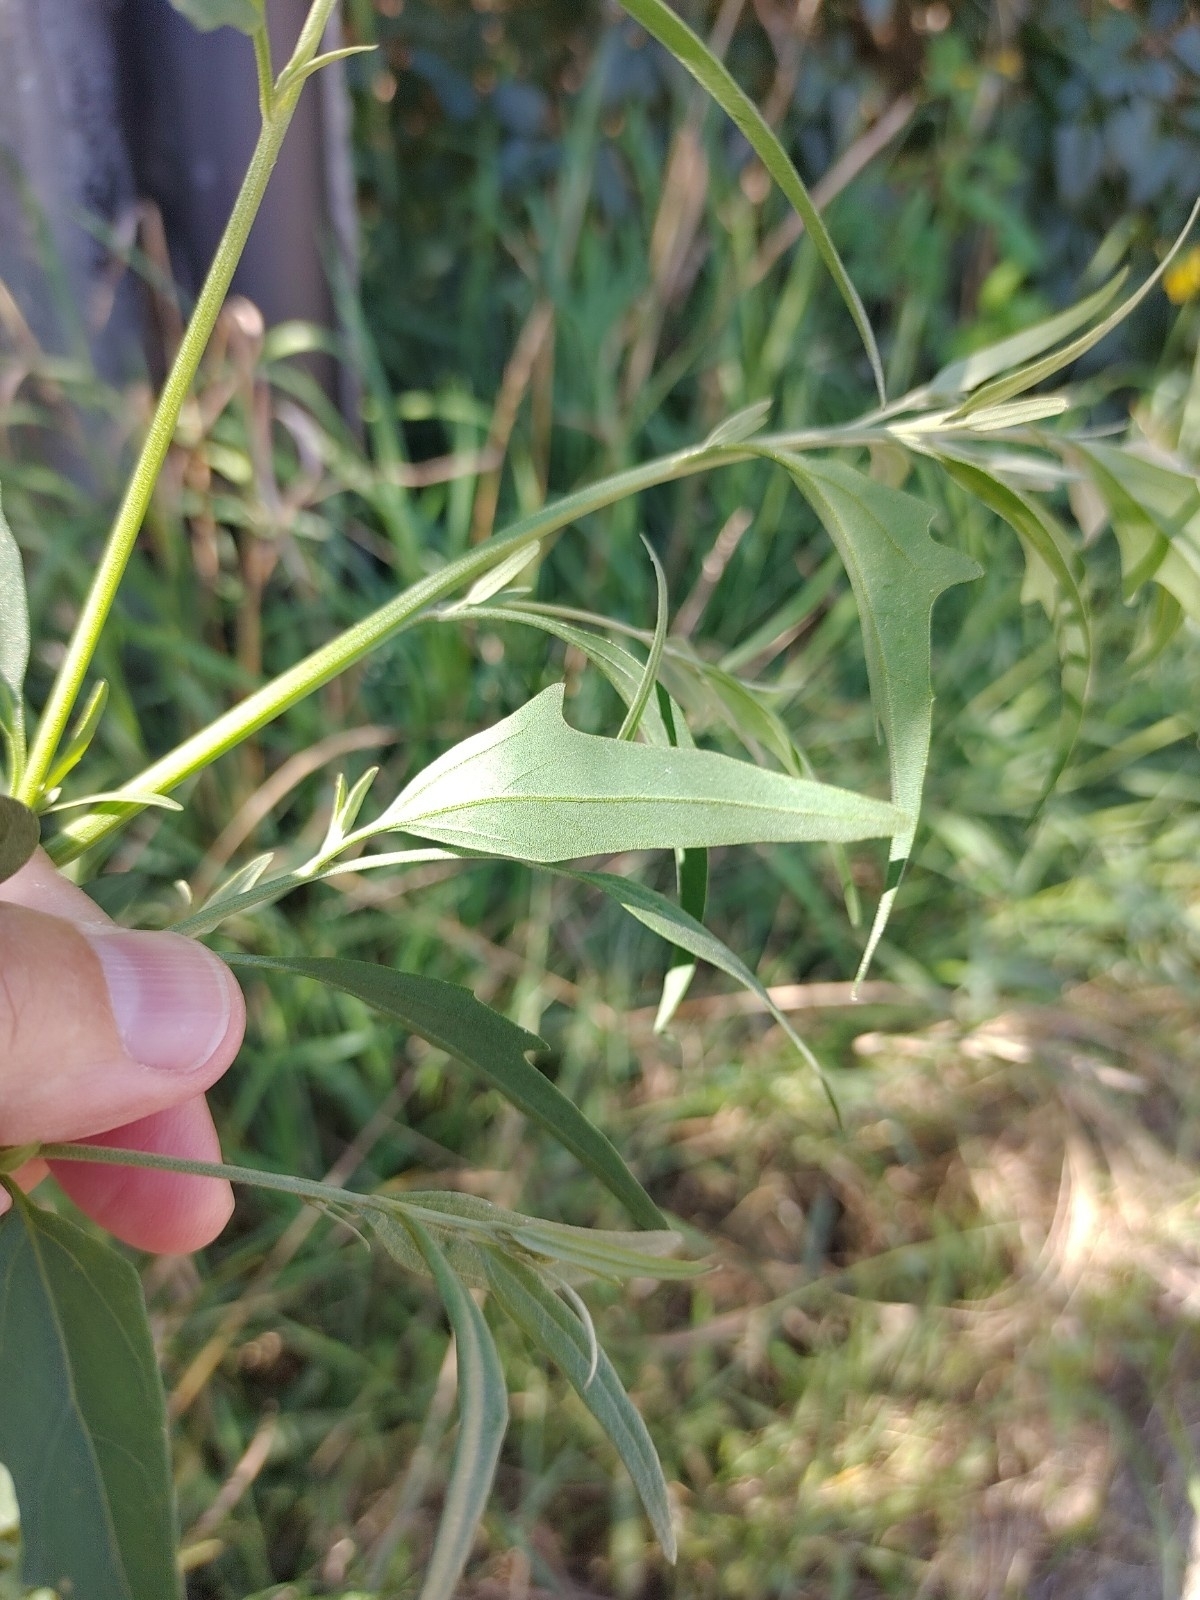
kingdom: Plantae
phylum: Tracheophyta
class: Magnoliopsida
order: Caryophyllales
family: Amaranthaceae
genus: Atriplex
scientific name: Atriplex oblongifolia
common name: Oblongleaf orache
